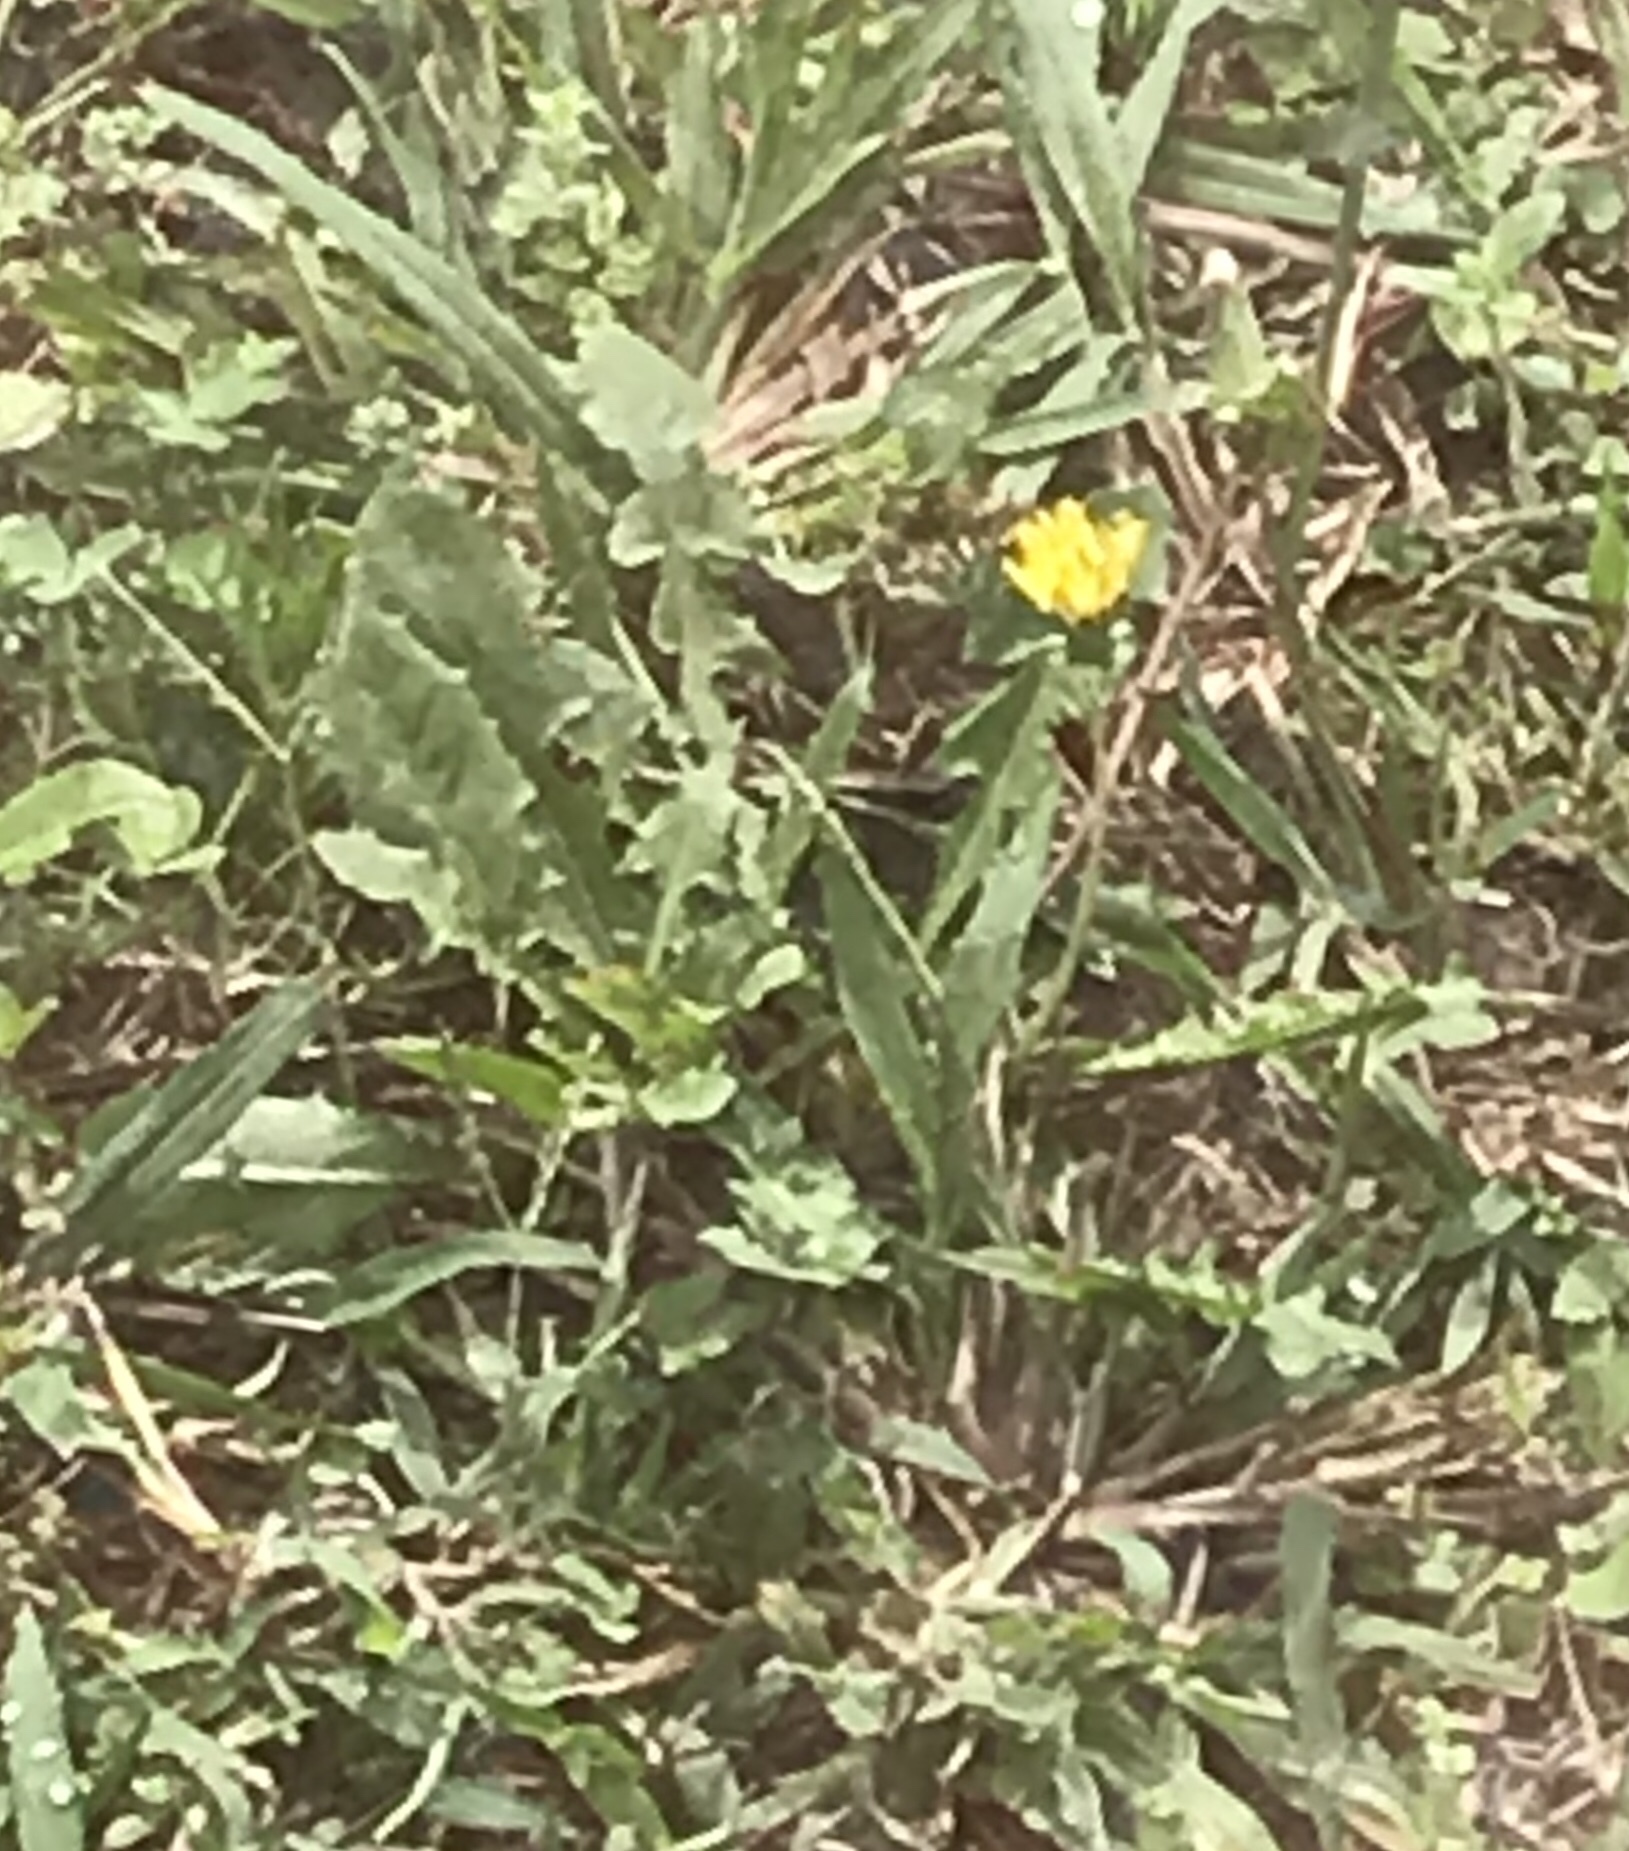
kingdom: Plantae
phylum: Tracheophyta
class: Magnoliopsida
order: Asterales
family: Asteraceae
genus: Taraxacum
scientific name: Taraxacum
